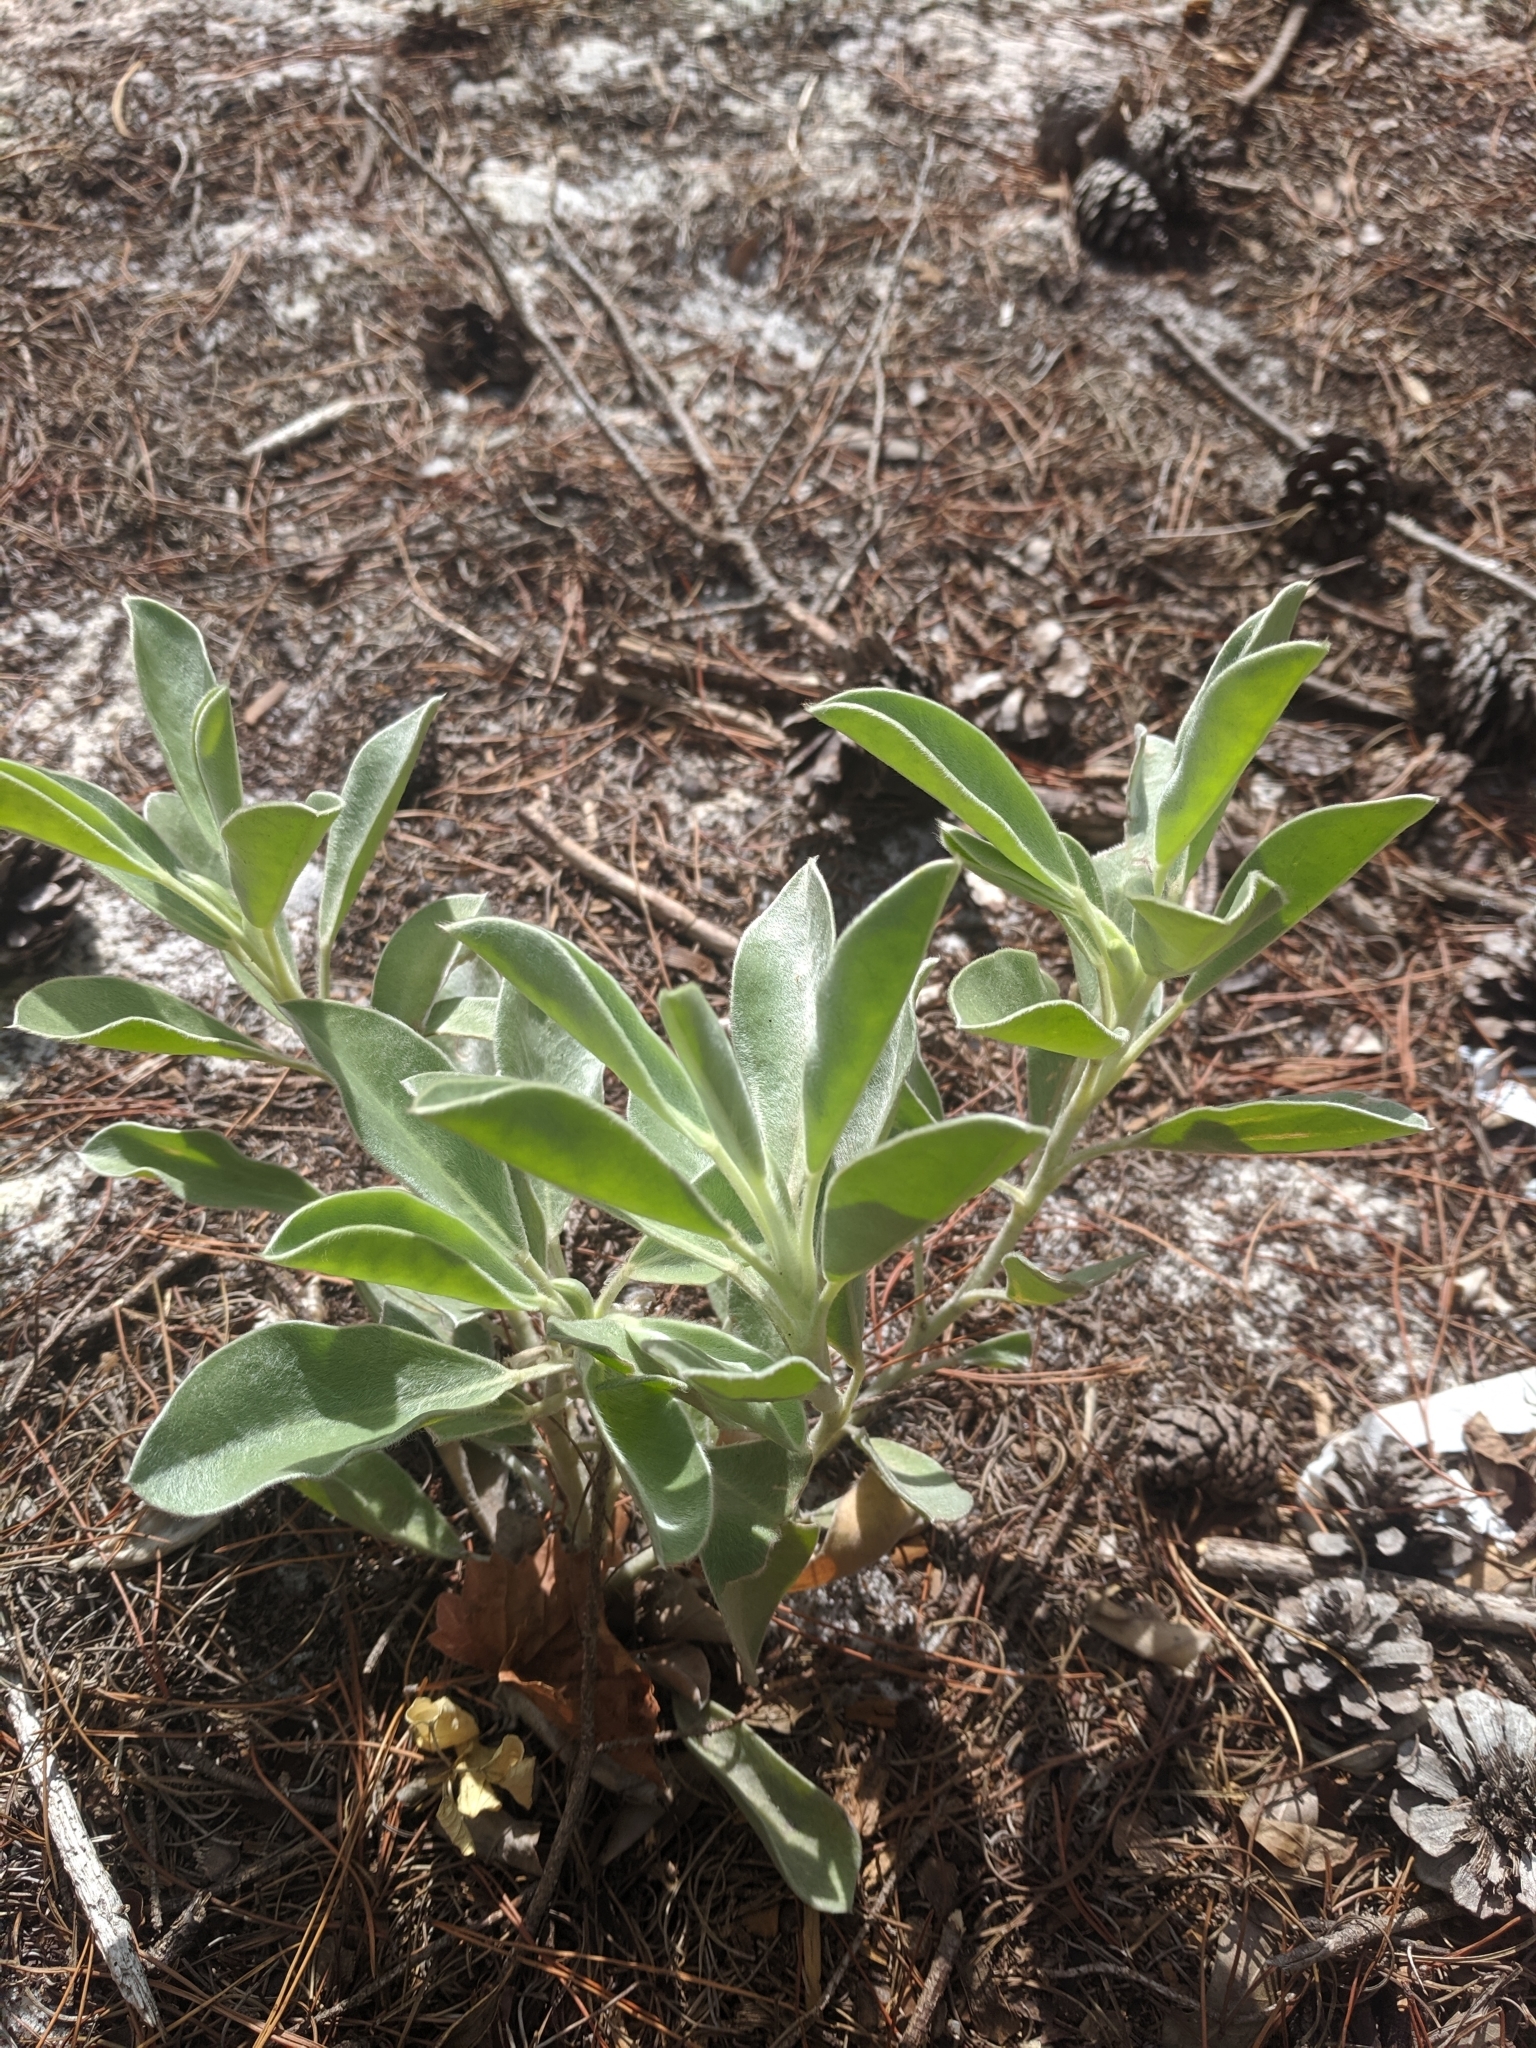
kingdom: Plantae
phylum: Tracheophyta
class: Magnoliopsida
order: Fabales
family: Fabaceae
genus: Lupinus
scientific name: Lupinus westianus
